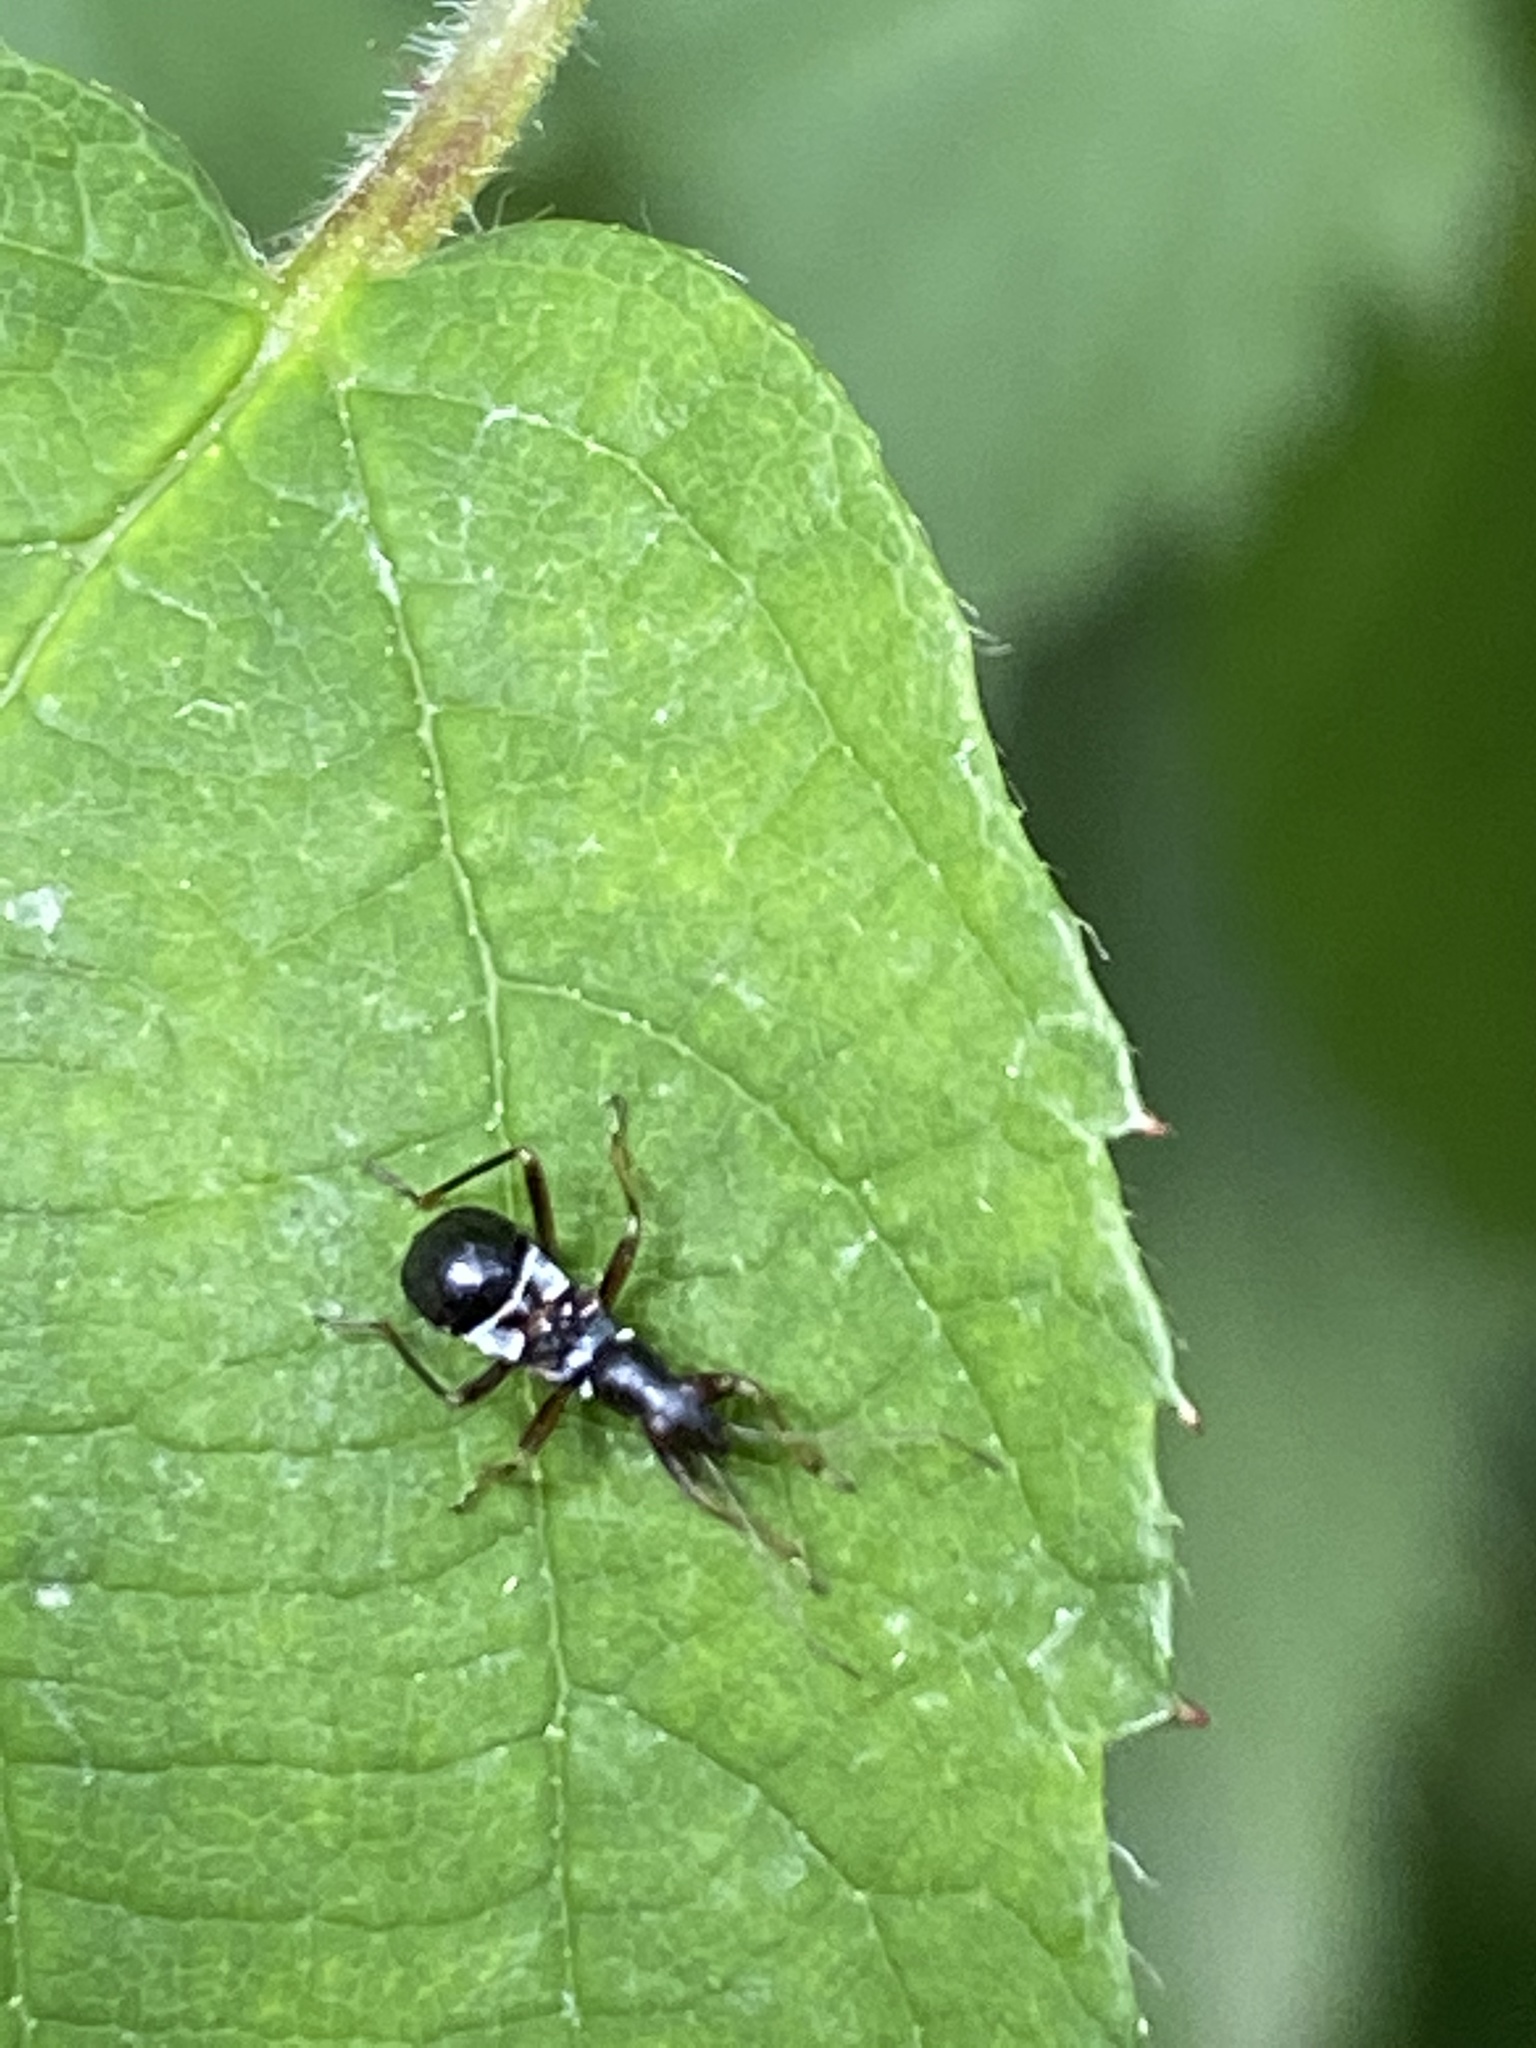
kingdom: Animalia
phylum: Arthropoda
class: Insecta
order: Hemiptera
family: Nabidae
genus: Himacerus
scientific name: Himacerus mirmicoides
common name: Ant damsel bug
